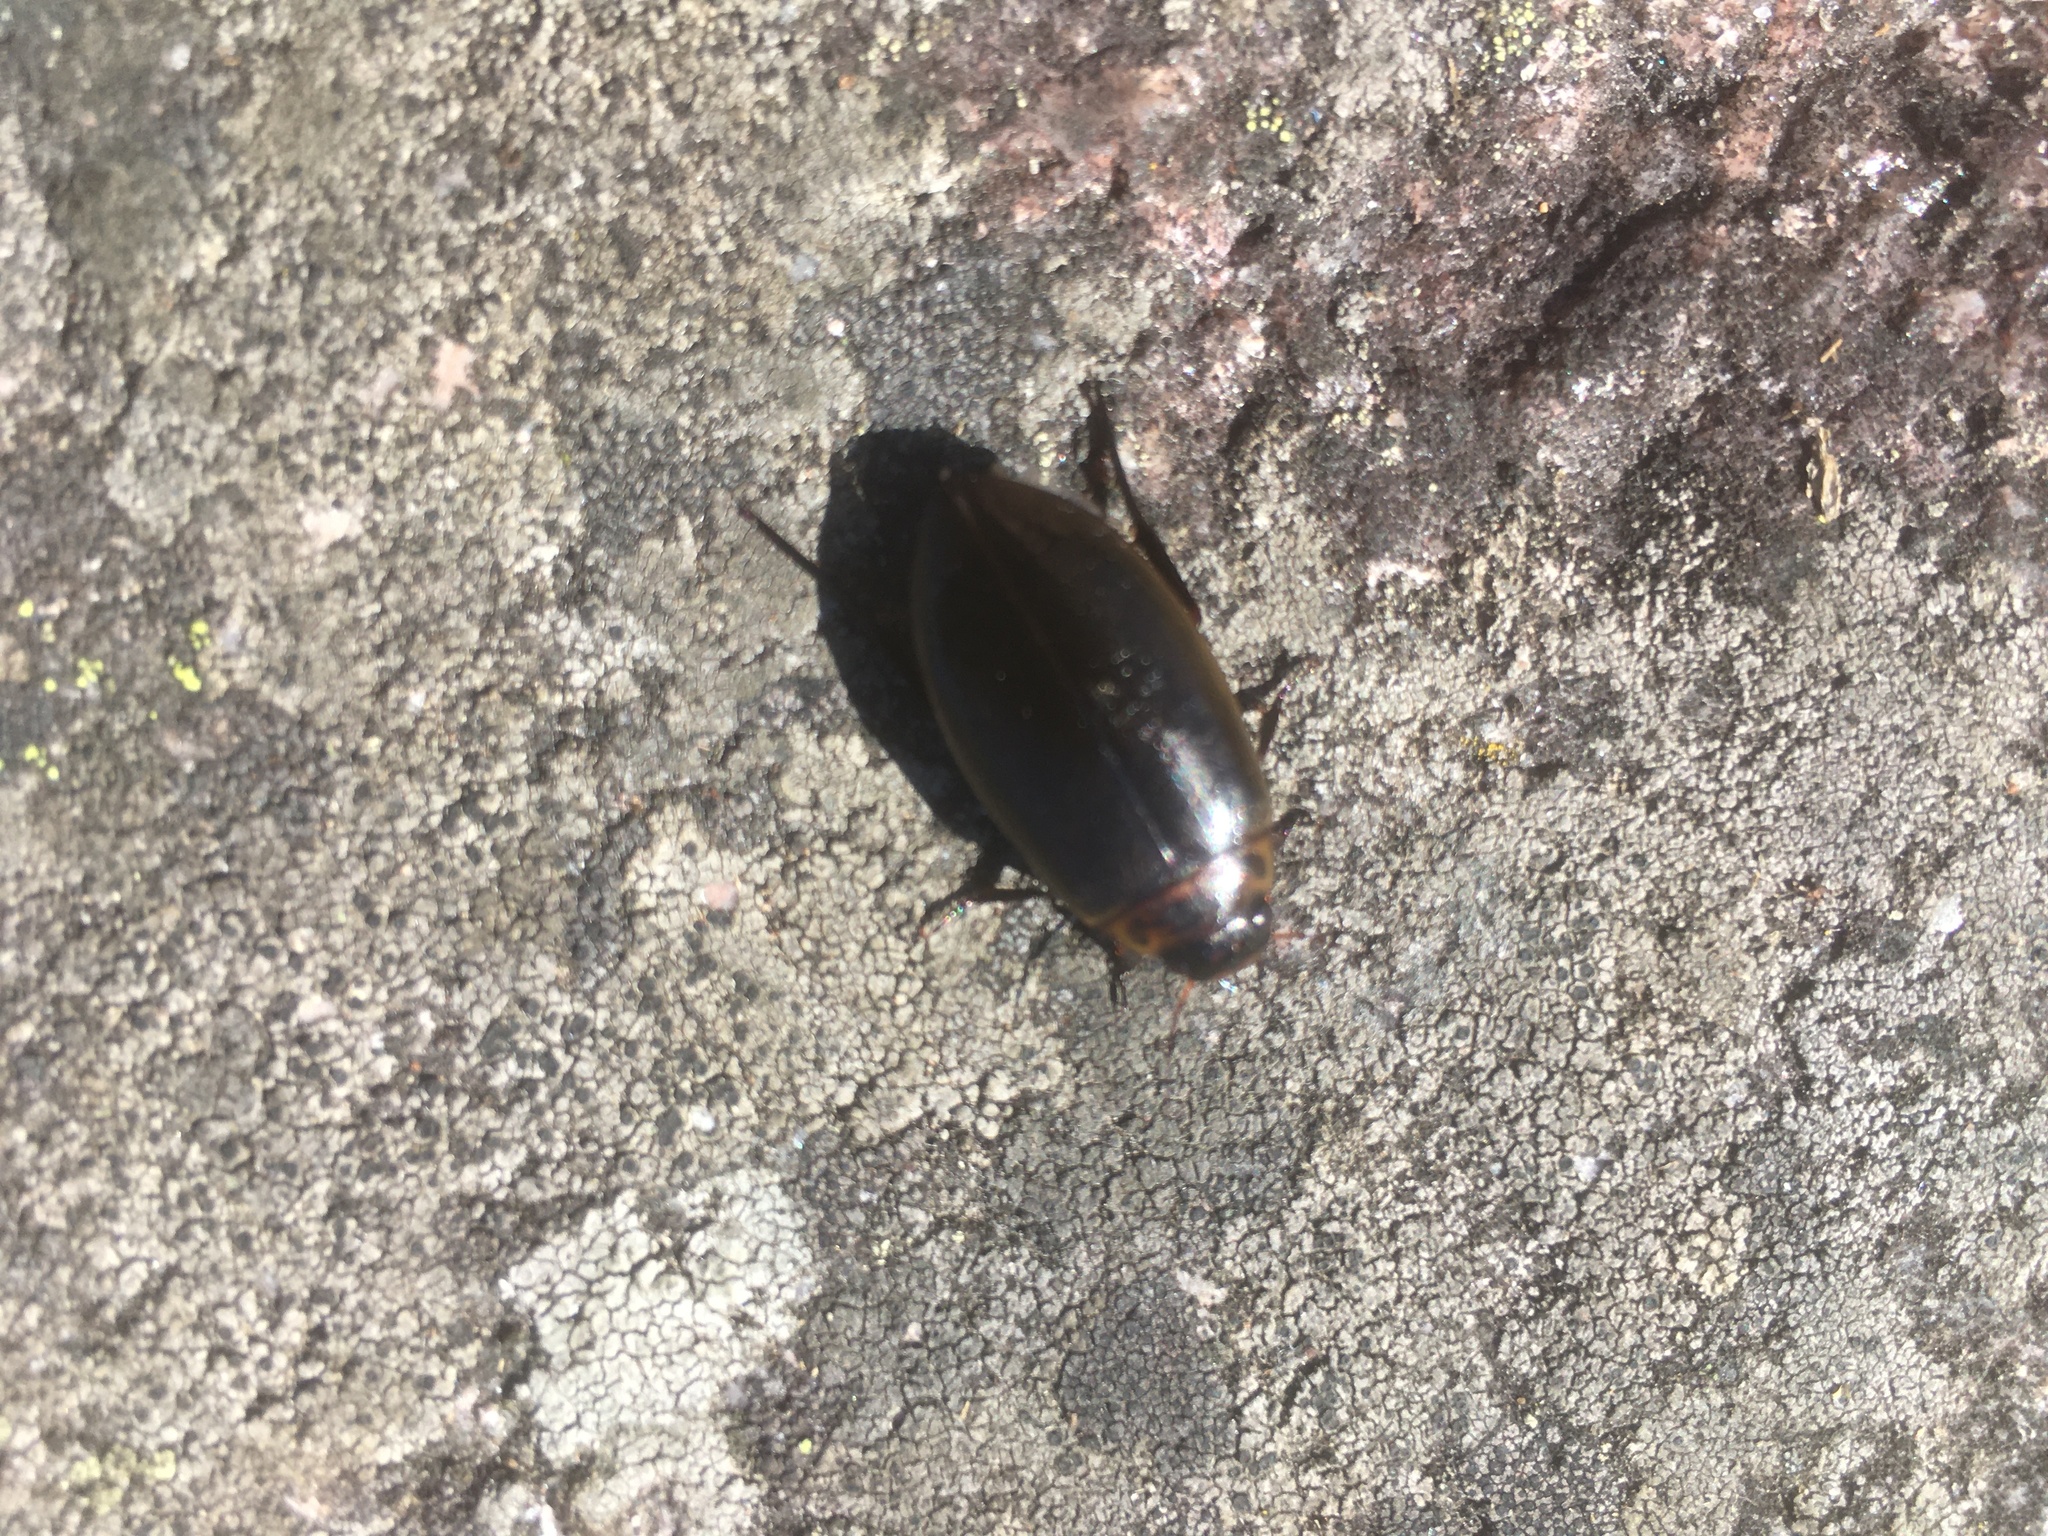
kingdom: Animalia
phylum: Arthropoda
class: Insecta
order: Coleoptera
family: Dytiscidae
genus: Colymbetes
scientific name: Colymbetes paykulli
